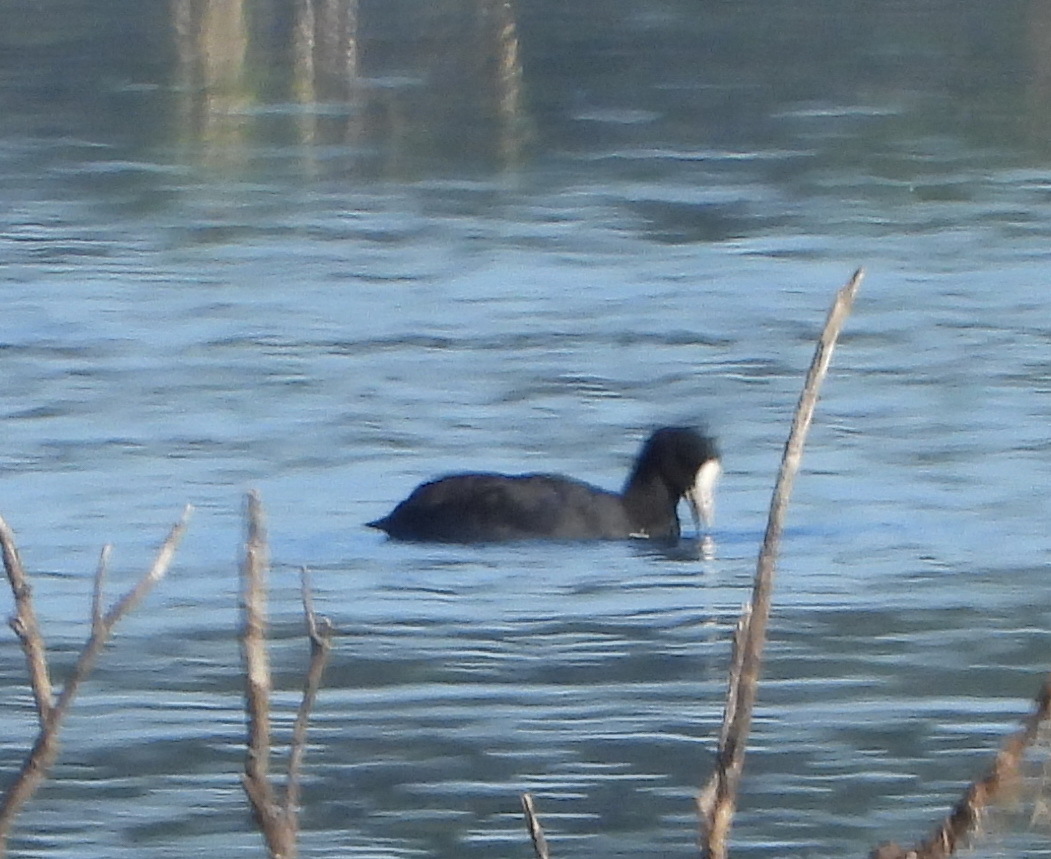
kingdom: Animalia
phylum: Chordata
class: Aves
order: Gruiformes
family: Rallidae
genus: Fulica
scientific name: Fulica atra
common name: Eurasian coot
